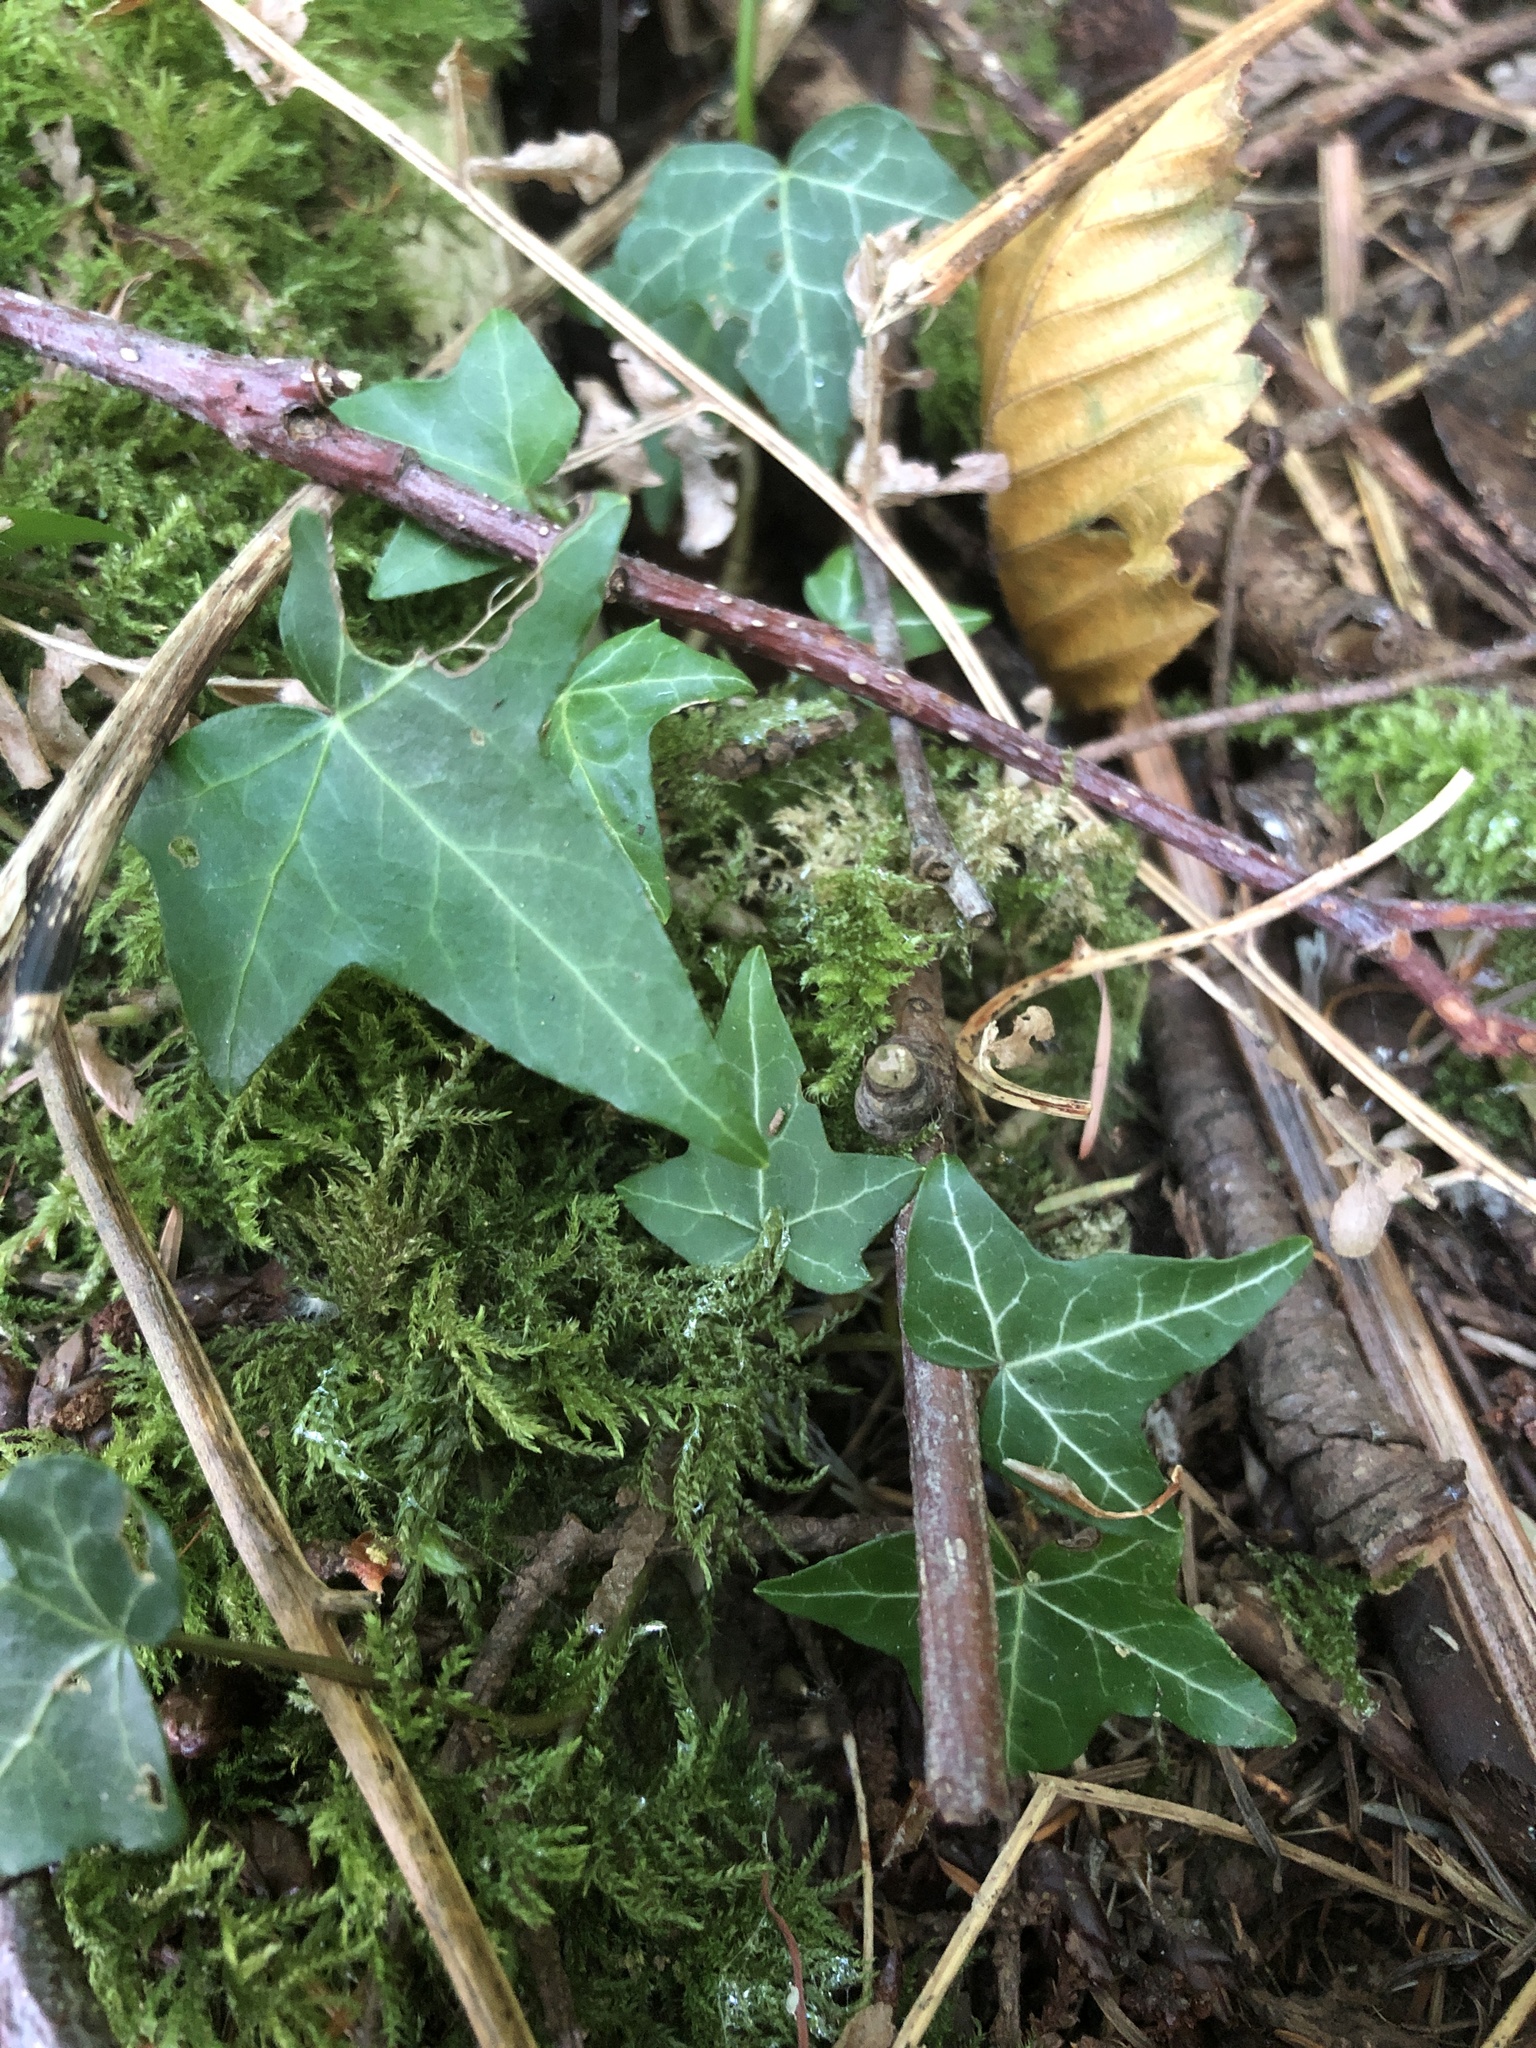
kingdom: Plantae
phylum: Tracheophyta
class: Magnoliopsida
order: Apiales
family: Araliaceae
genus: Hedera
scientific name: Hedera helix
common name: Ivy
